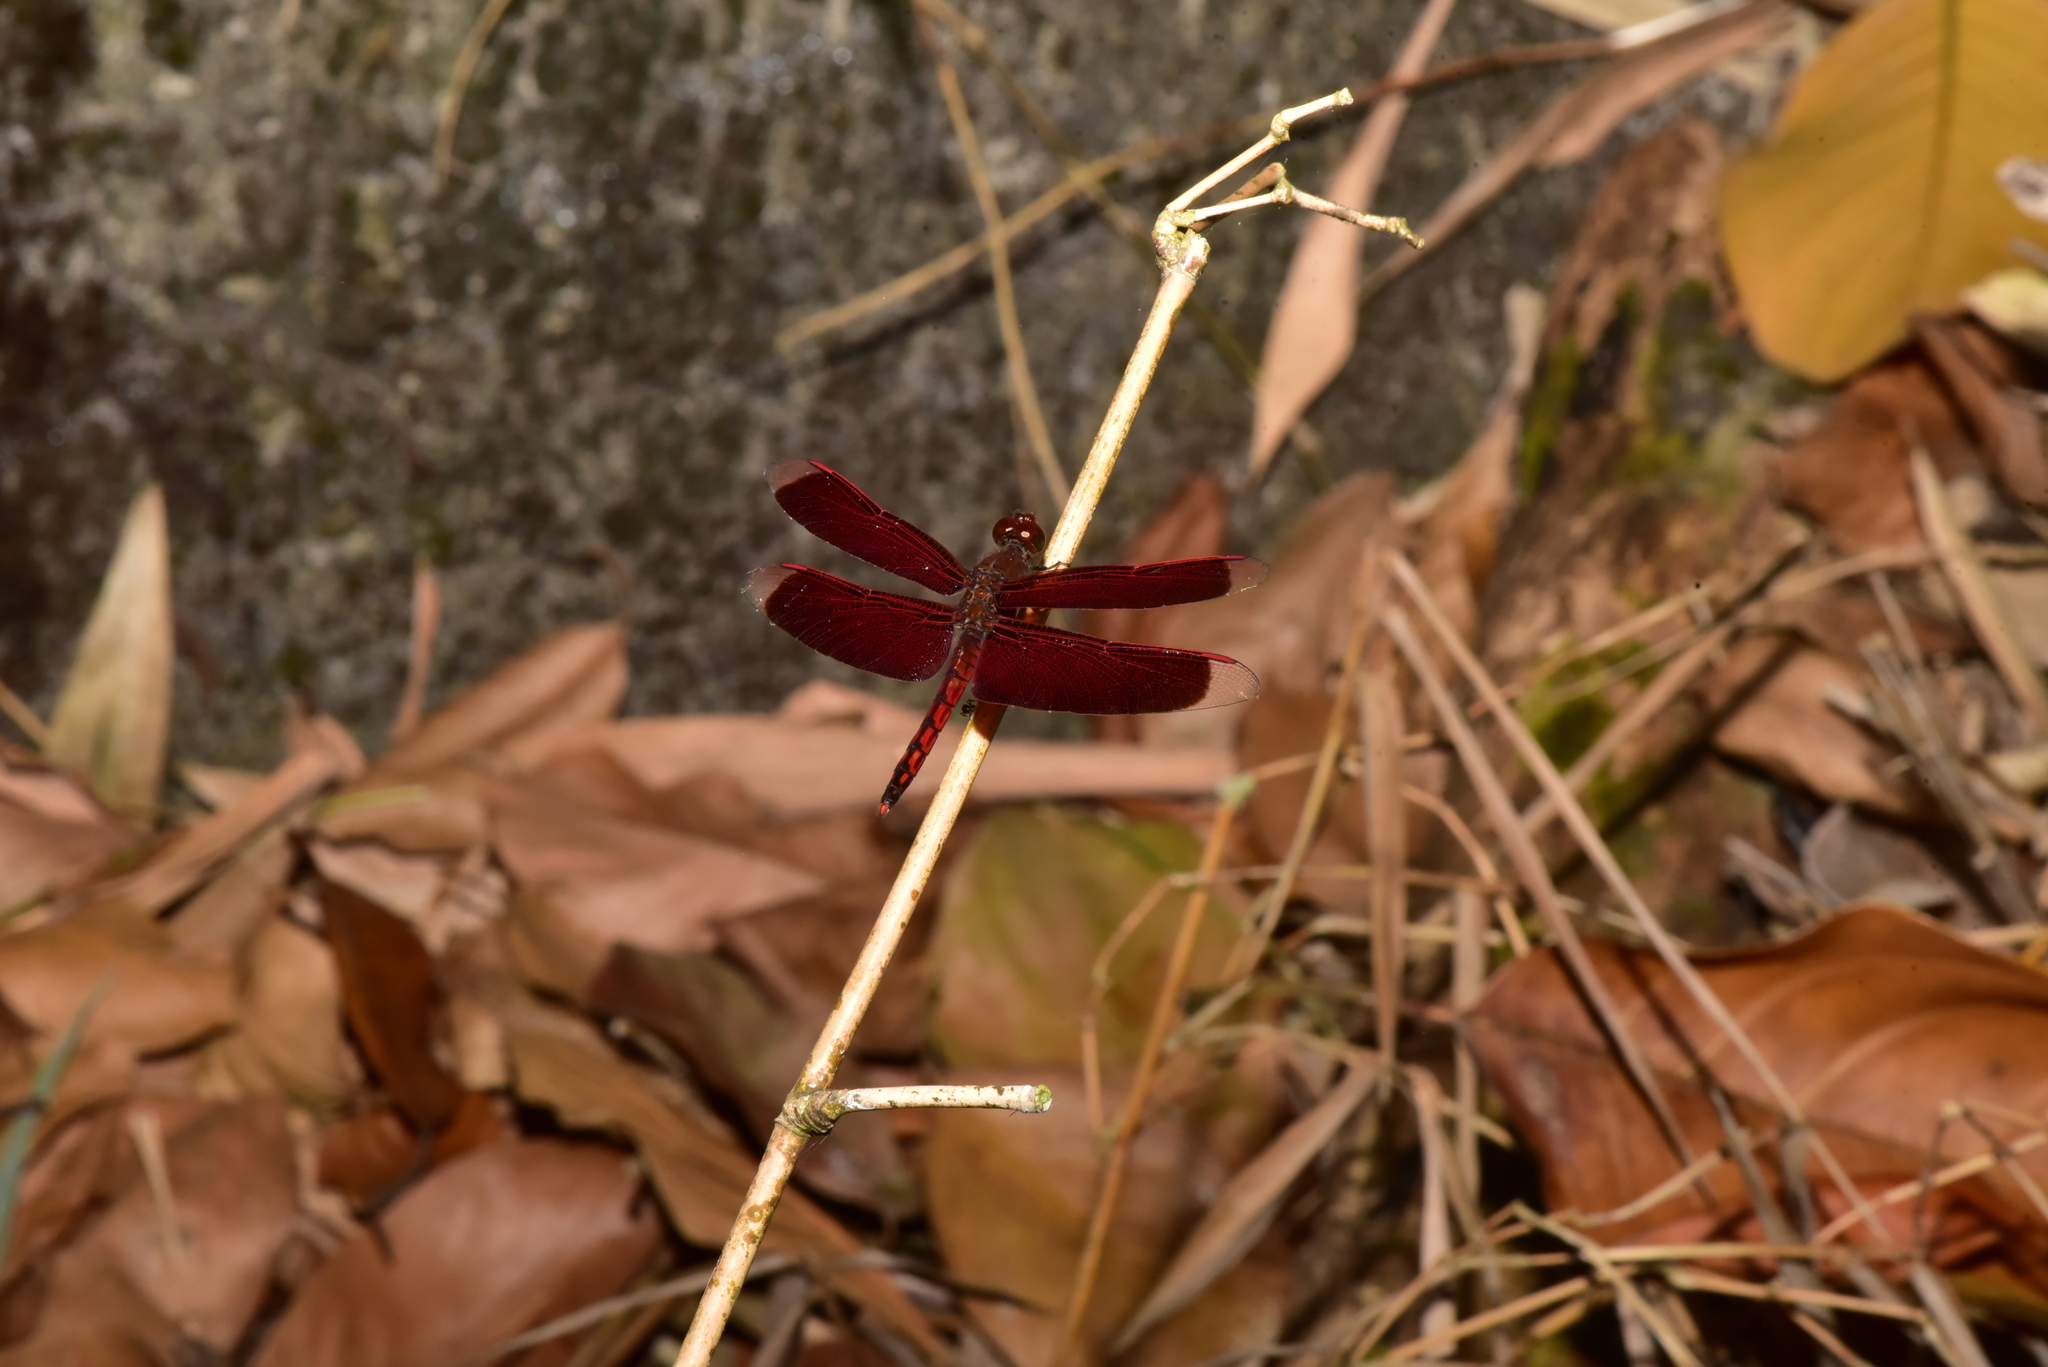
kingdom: Animalia
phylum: Arthropoda
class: Insecta
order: Odonata
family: Libellulidae
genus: Neurothemis
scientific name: Neurothemis taiwanensis
